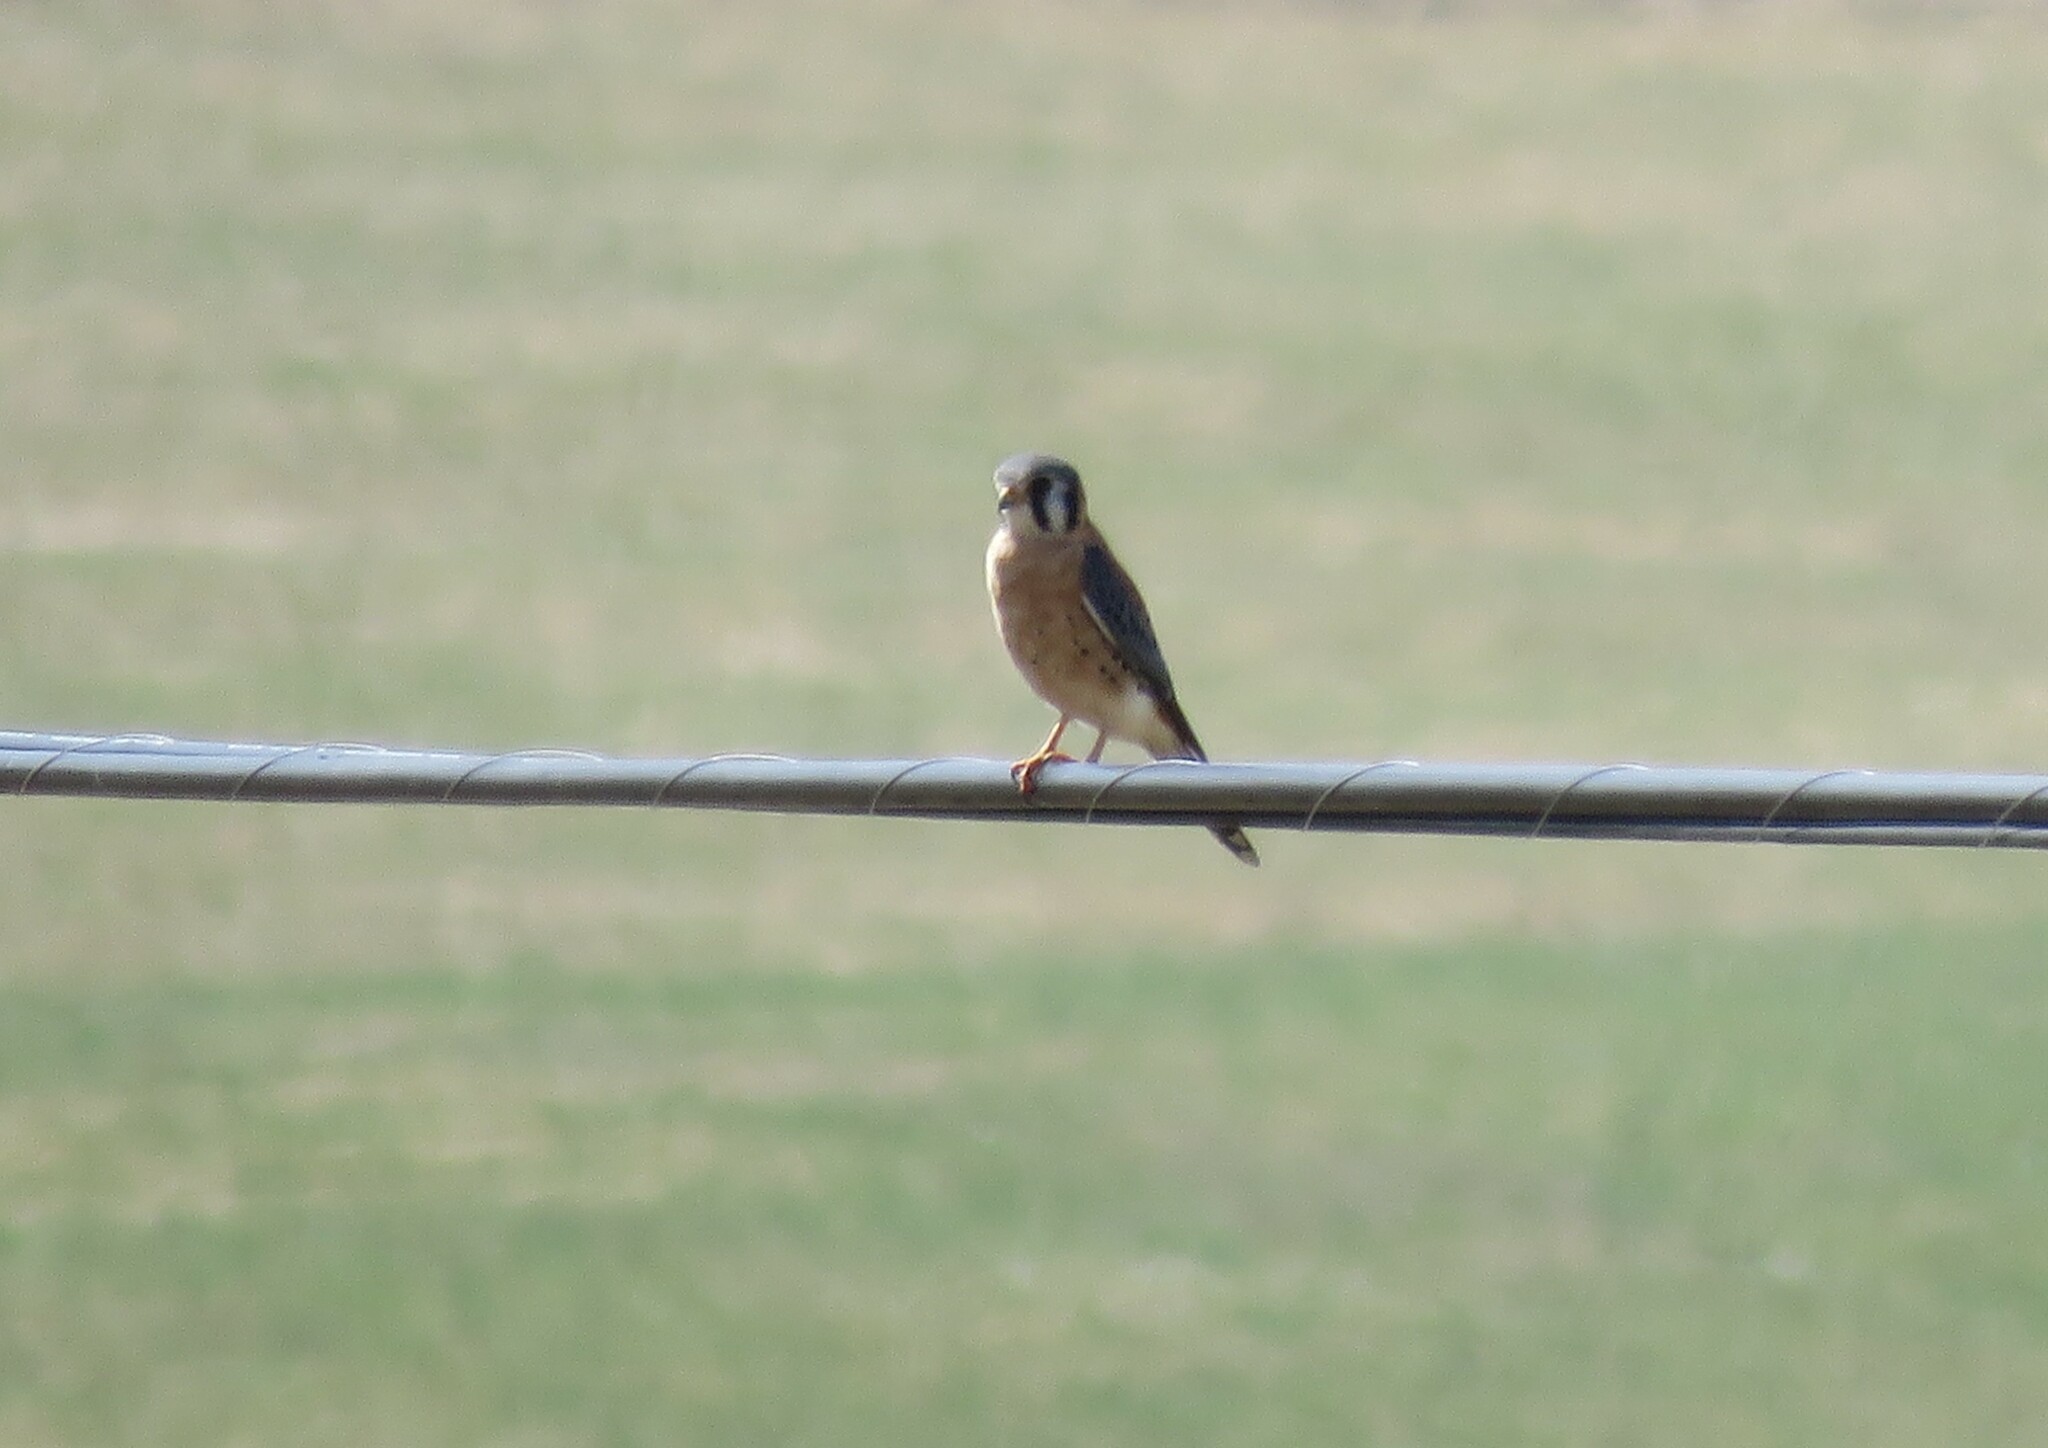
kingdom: Animalia
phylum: Chordata
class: Aves
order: Falconiformes
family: Falconidae
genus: Falco
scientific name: Falco sparverius
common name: American kestrel
